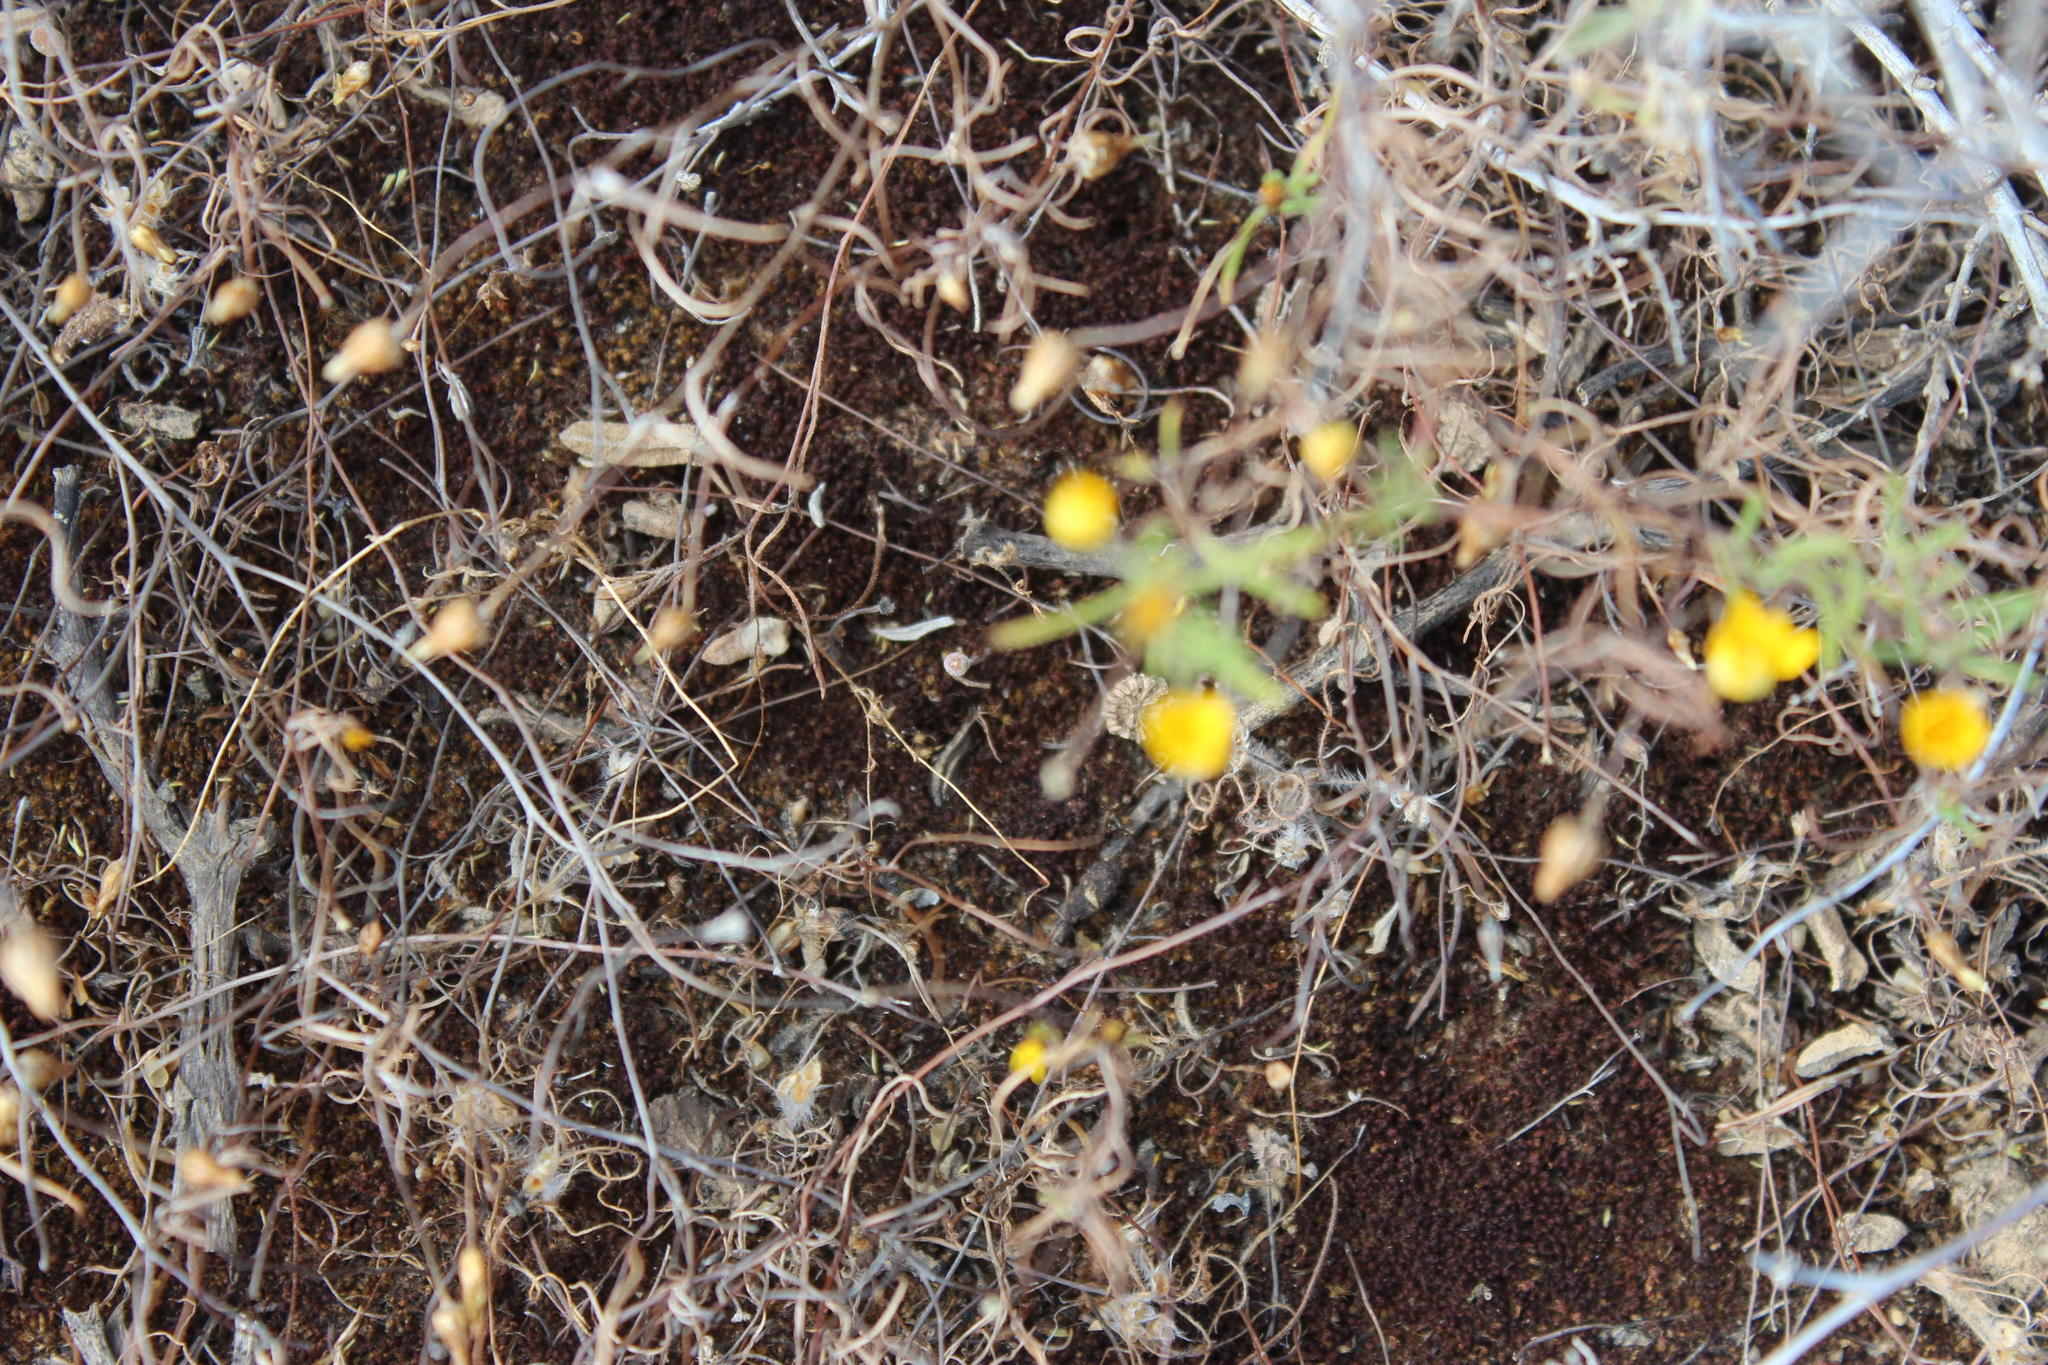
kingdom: Plantae
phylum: Tracheophyta
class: Magnoliopsida
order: Asterales
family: Asteraceae
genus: Rhynchopsidium
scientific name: Rhynchopsidium pumilum
